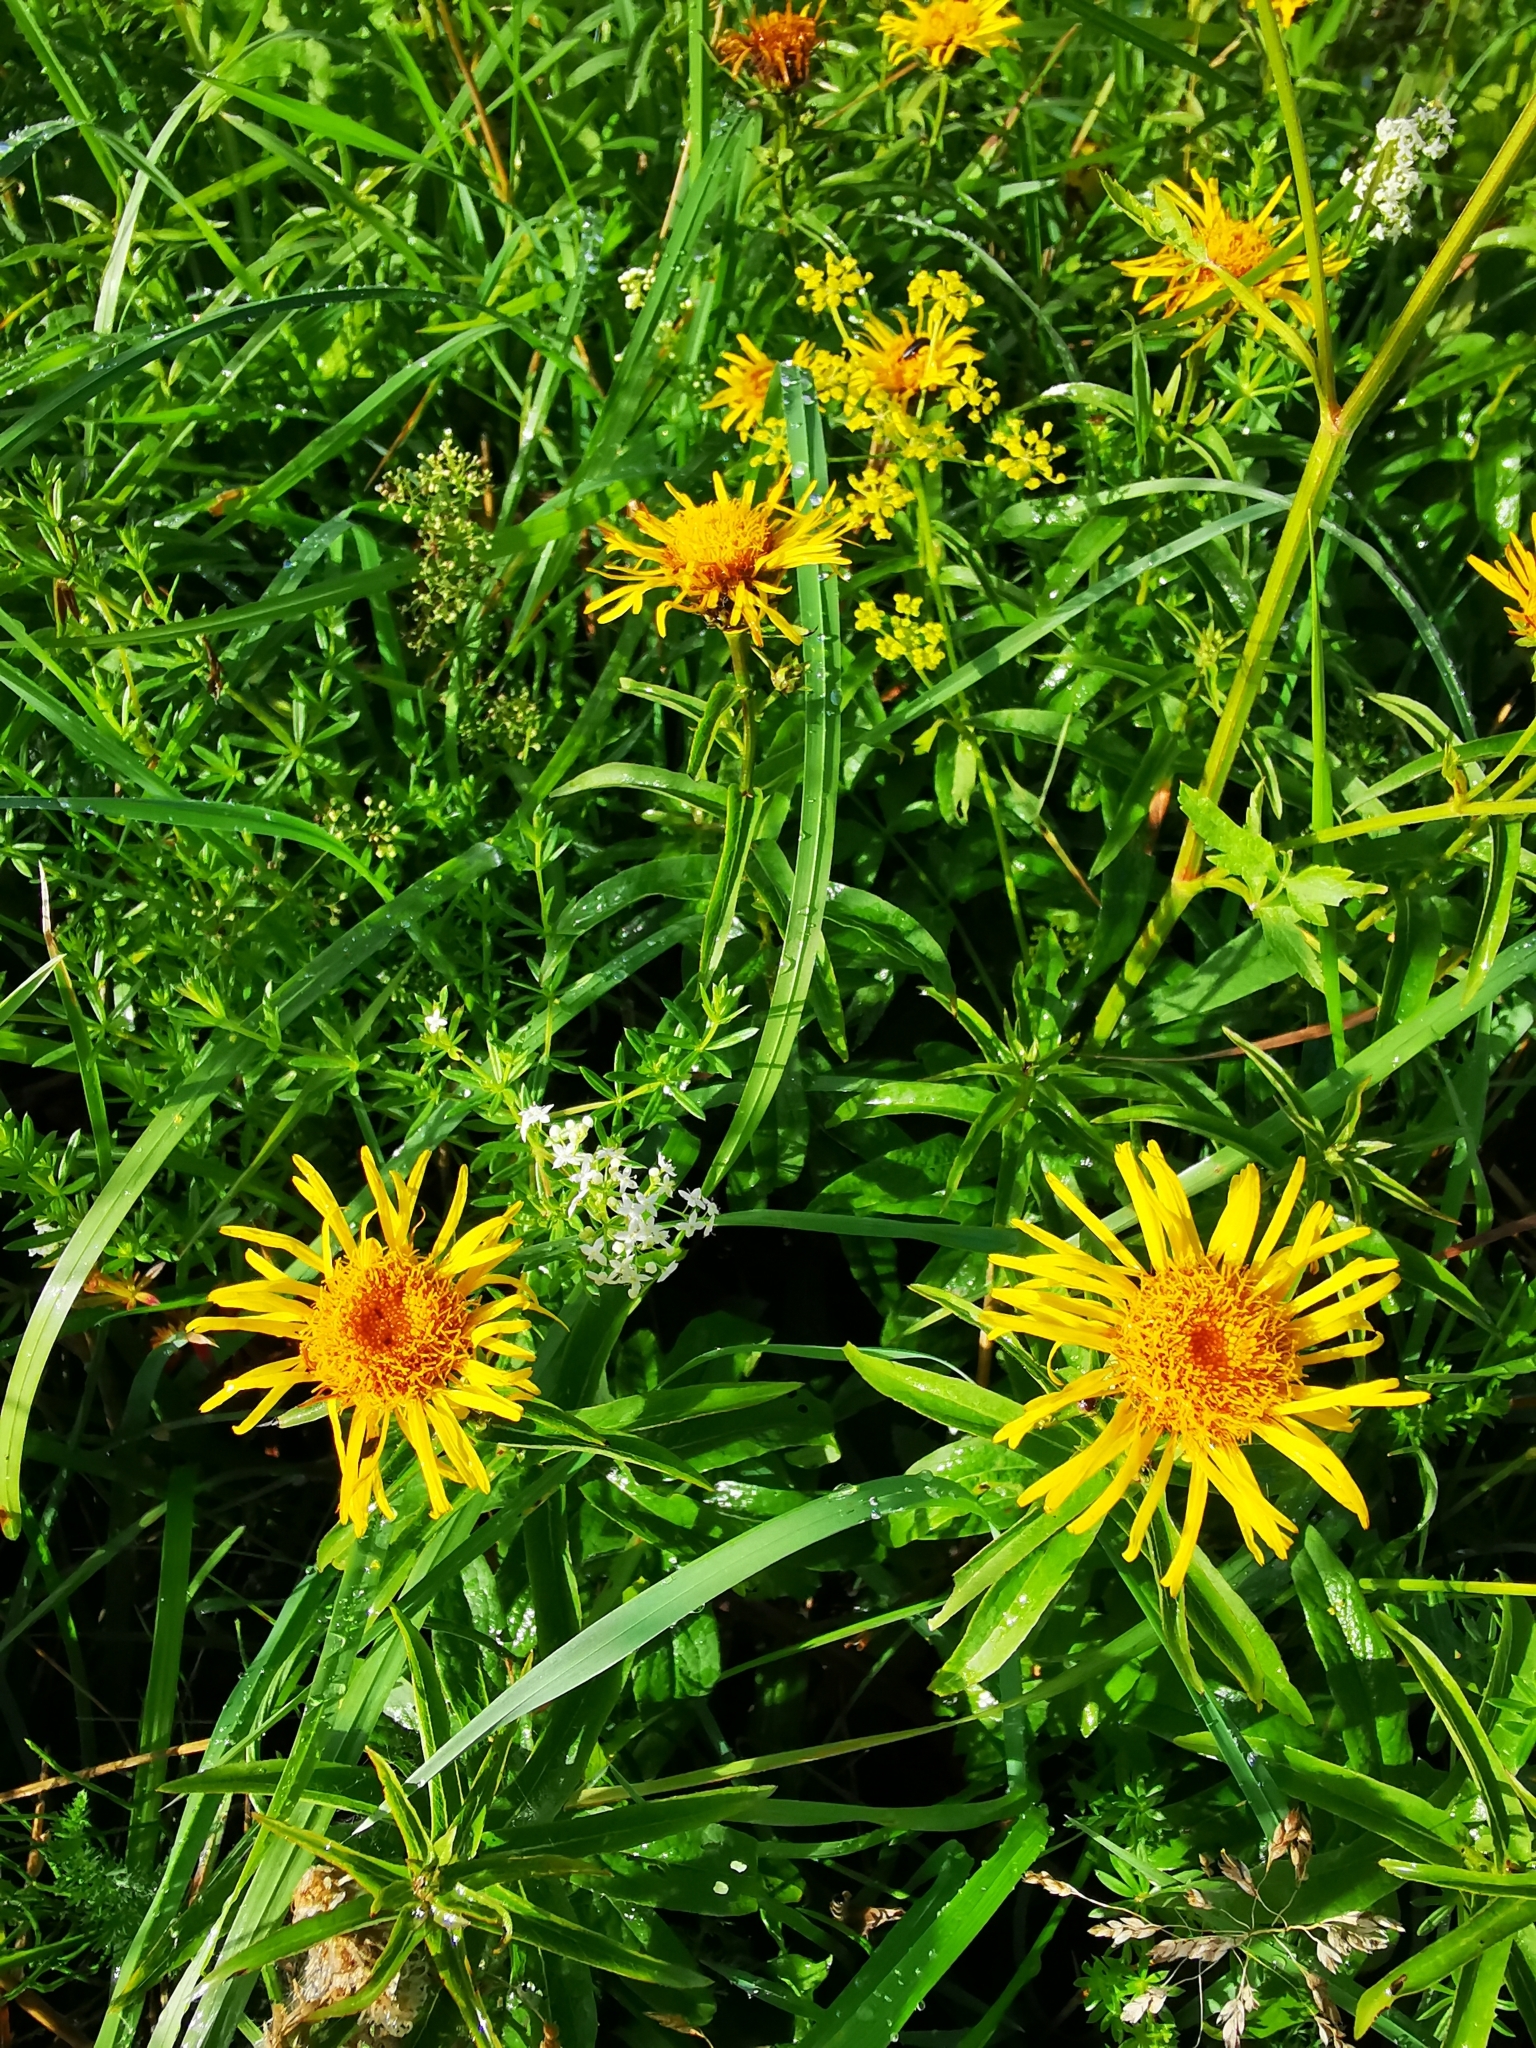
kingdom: Plantae
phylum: Tracheophyta
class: Magnoliopsida
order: Asterales
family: Asteraceae
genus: Pentanema
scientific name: Pentanema salicinum
